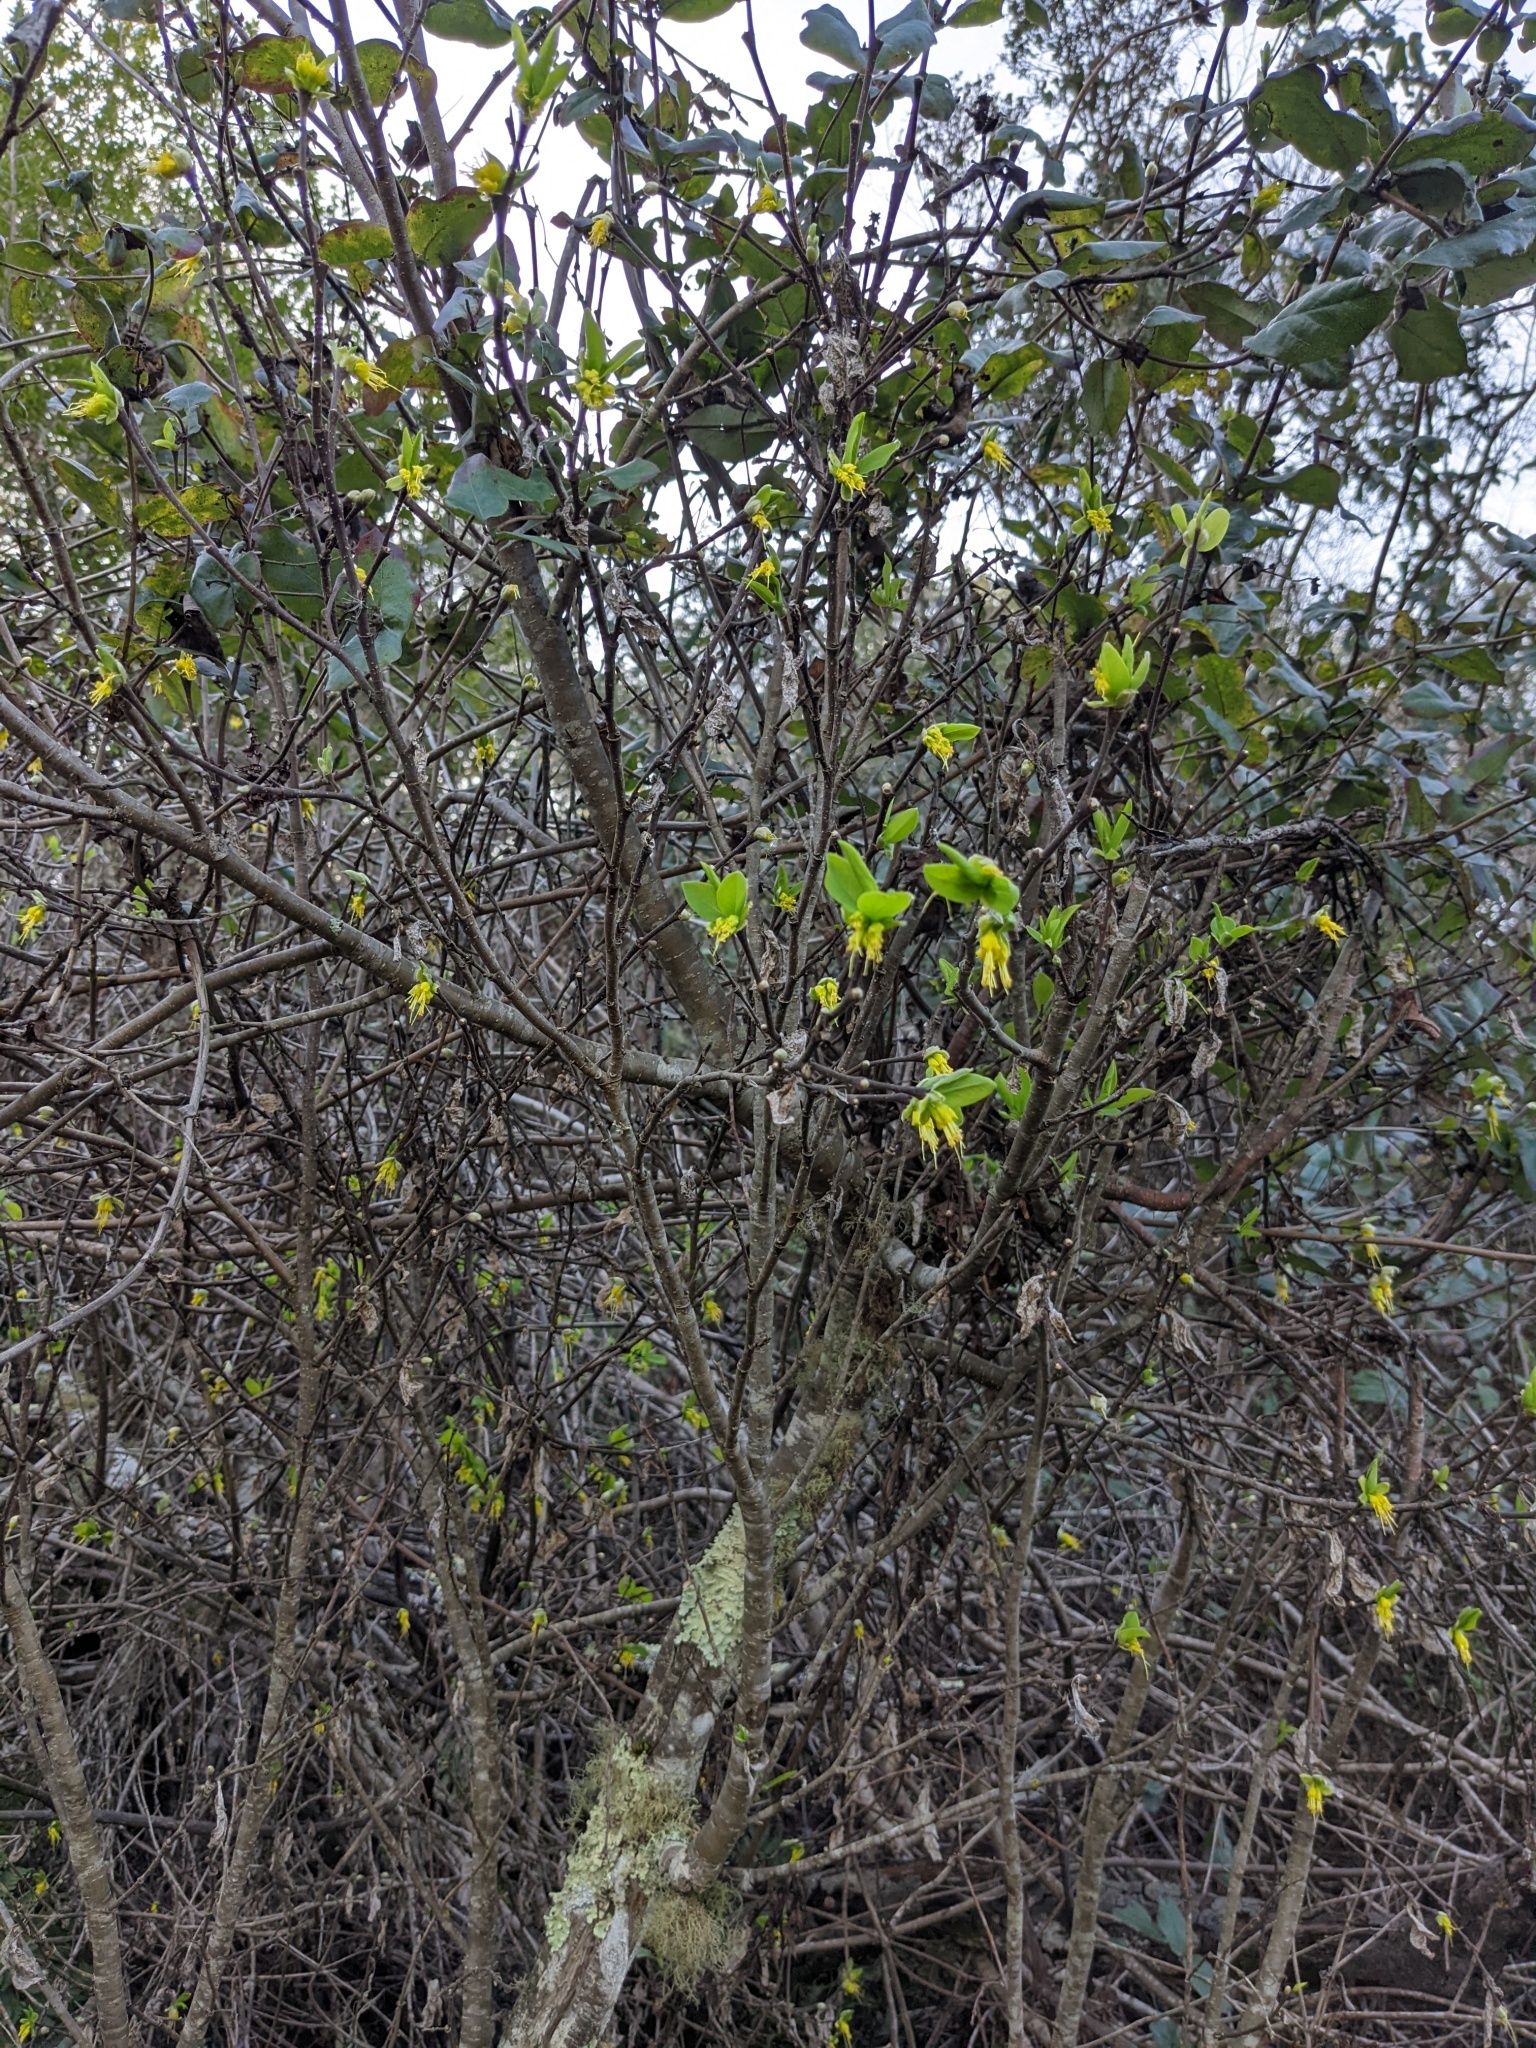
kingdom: Plantae
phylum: Tracheophyta
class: Magnoliopsida
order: Malvales
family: Thymelaeaceae
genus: Dirca
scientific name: Dirca occidentalis
